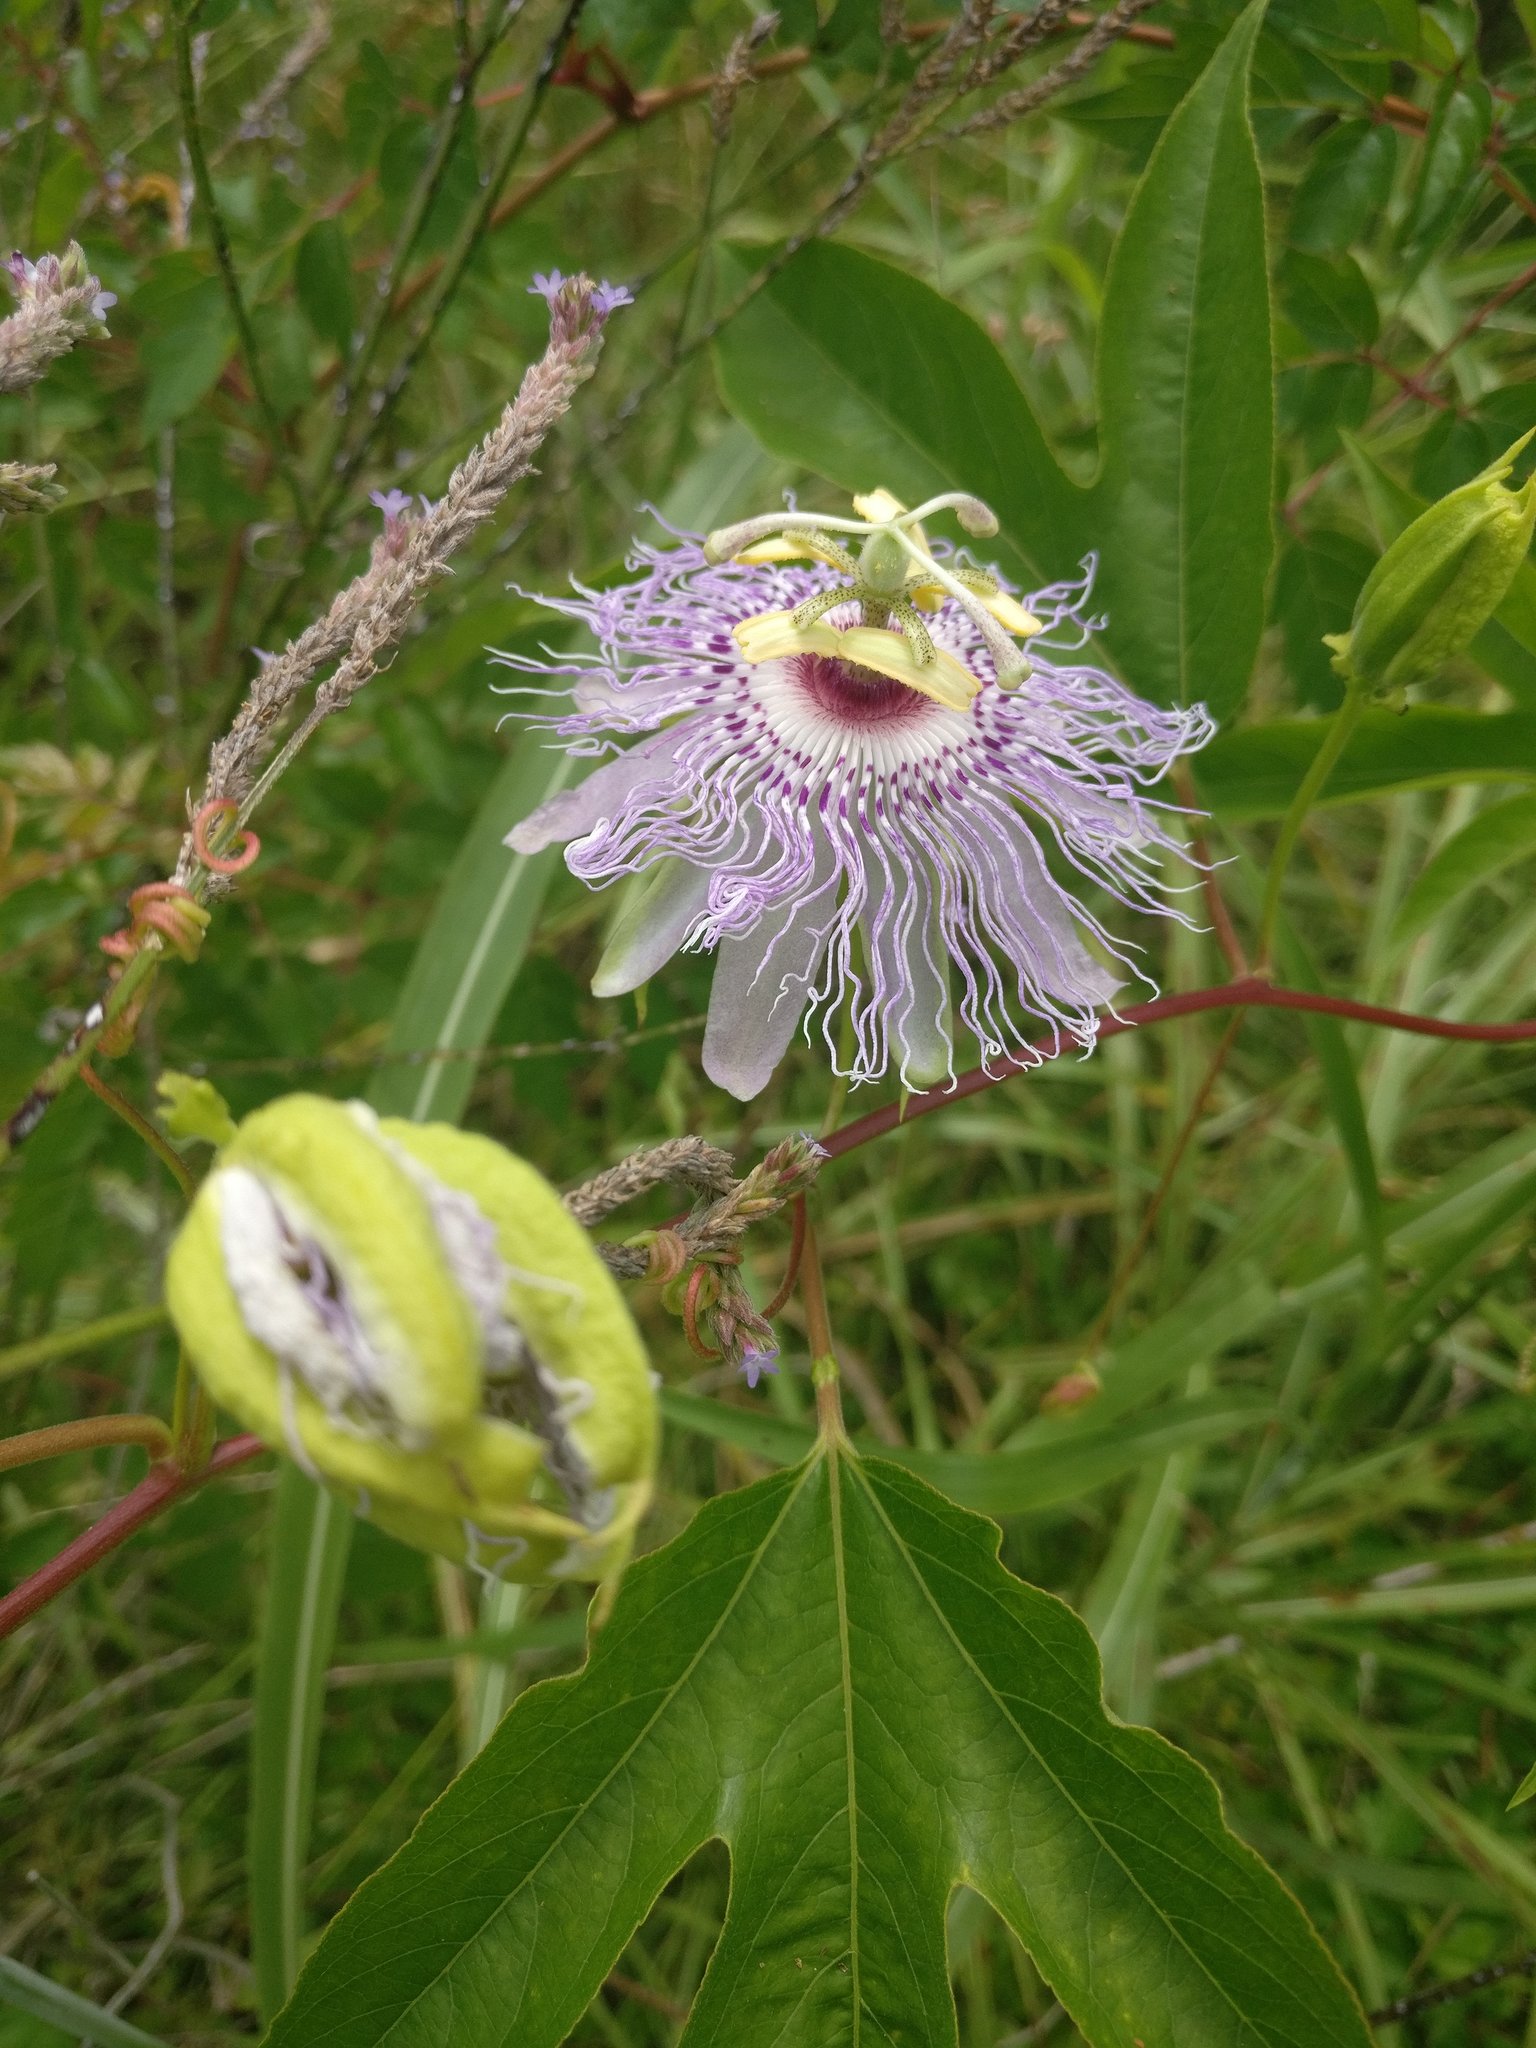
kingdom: Plantae
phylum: Tracheophyta
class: Magnoliopsida
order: Malpighiales
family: Passifloraceae
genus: Passiflora
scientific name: Passiflora incarnata
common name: Apricot-vine
